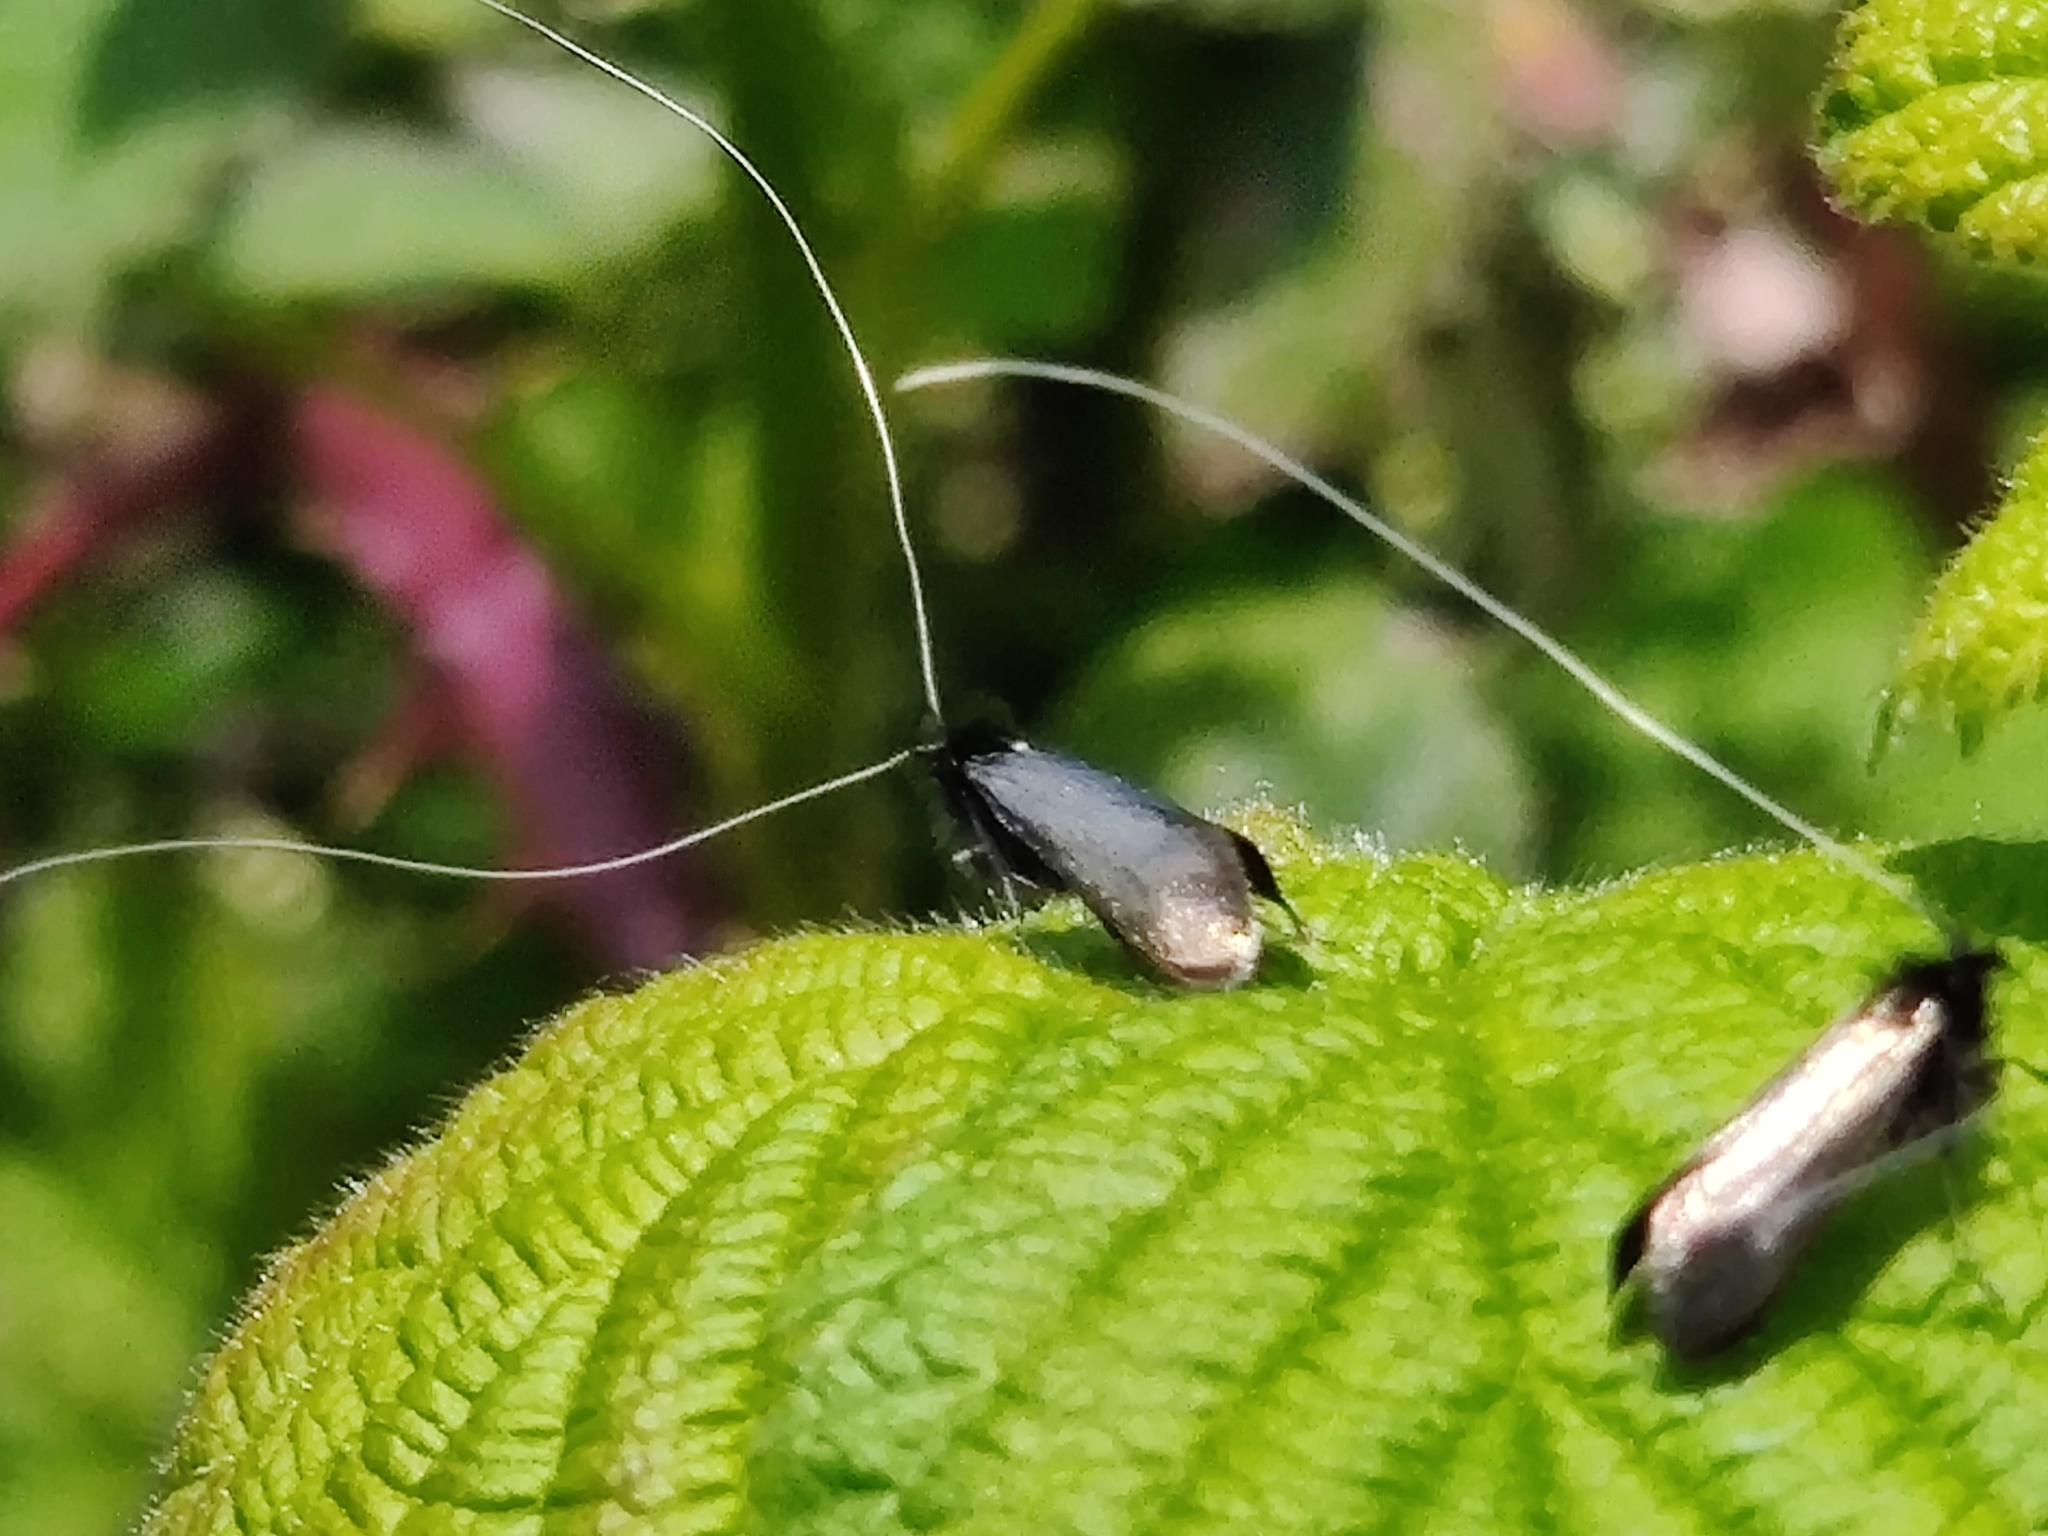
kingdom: Animalia
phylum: Arthropoda
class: Insecta
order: Lepidoptera
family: Adelidae
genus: Adela
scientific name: Adela viridella
